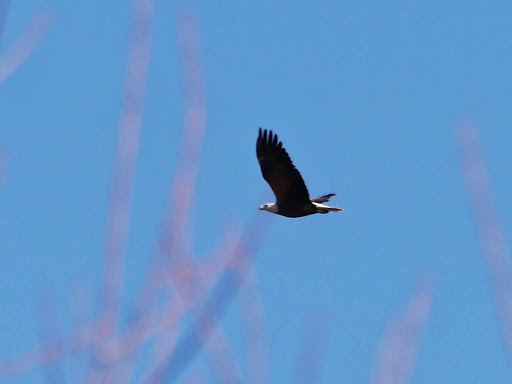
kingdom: Animalia
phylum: Chordata
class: Aves
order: Accipitriformes
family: Accipitridae
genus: Haliaeetus
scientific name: Haliaeetus leucocephalus
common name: Bald eagle
